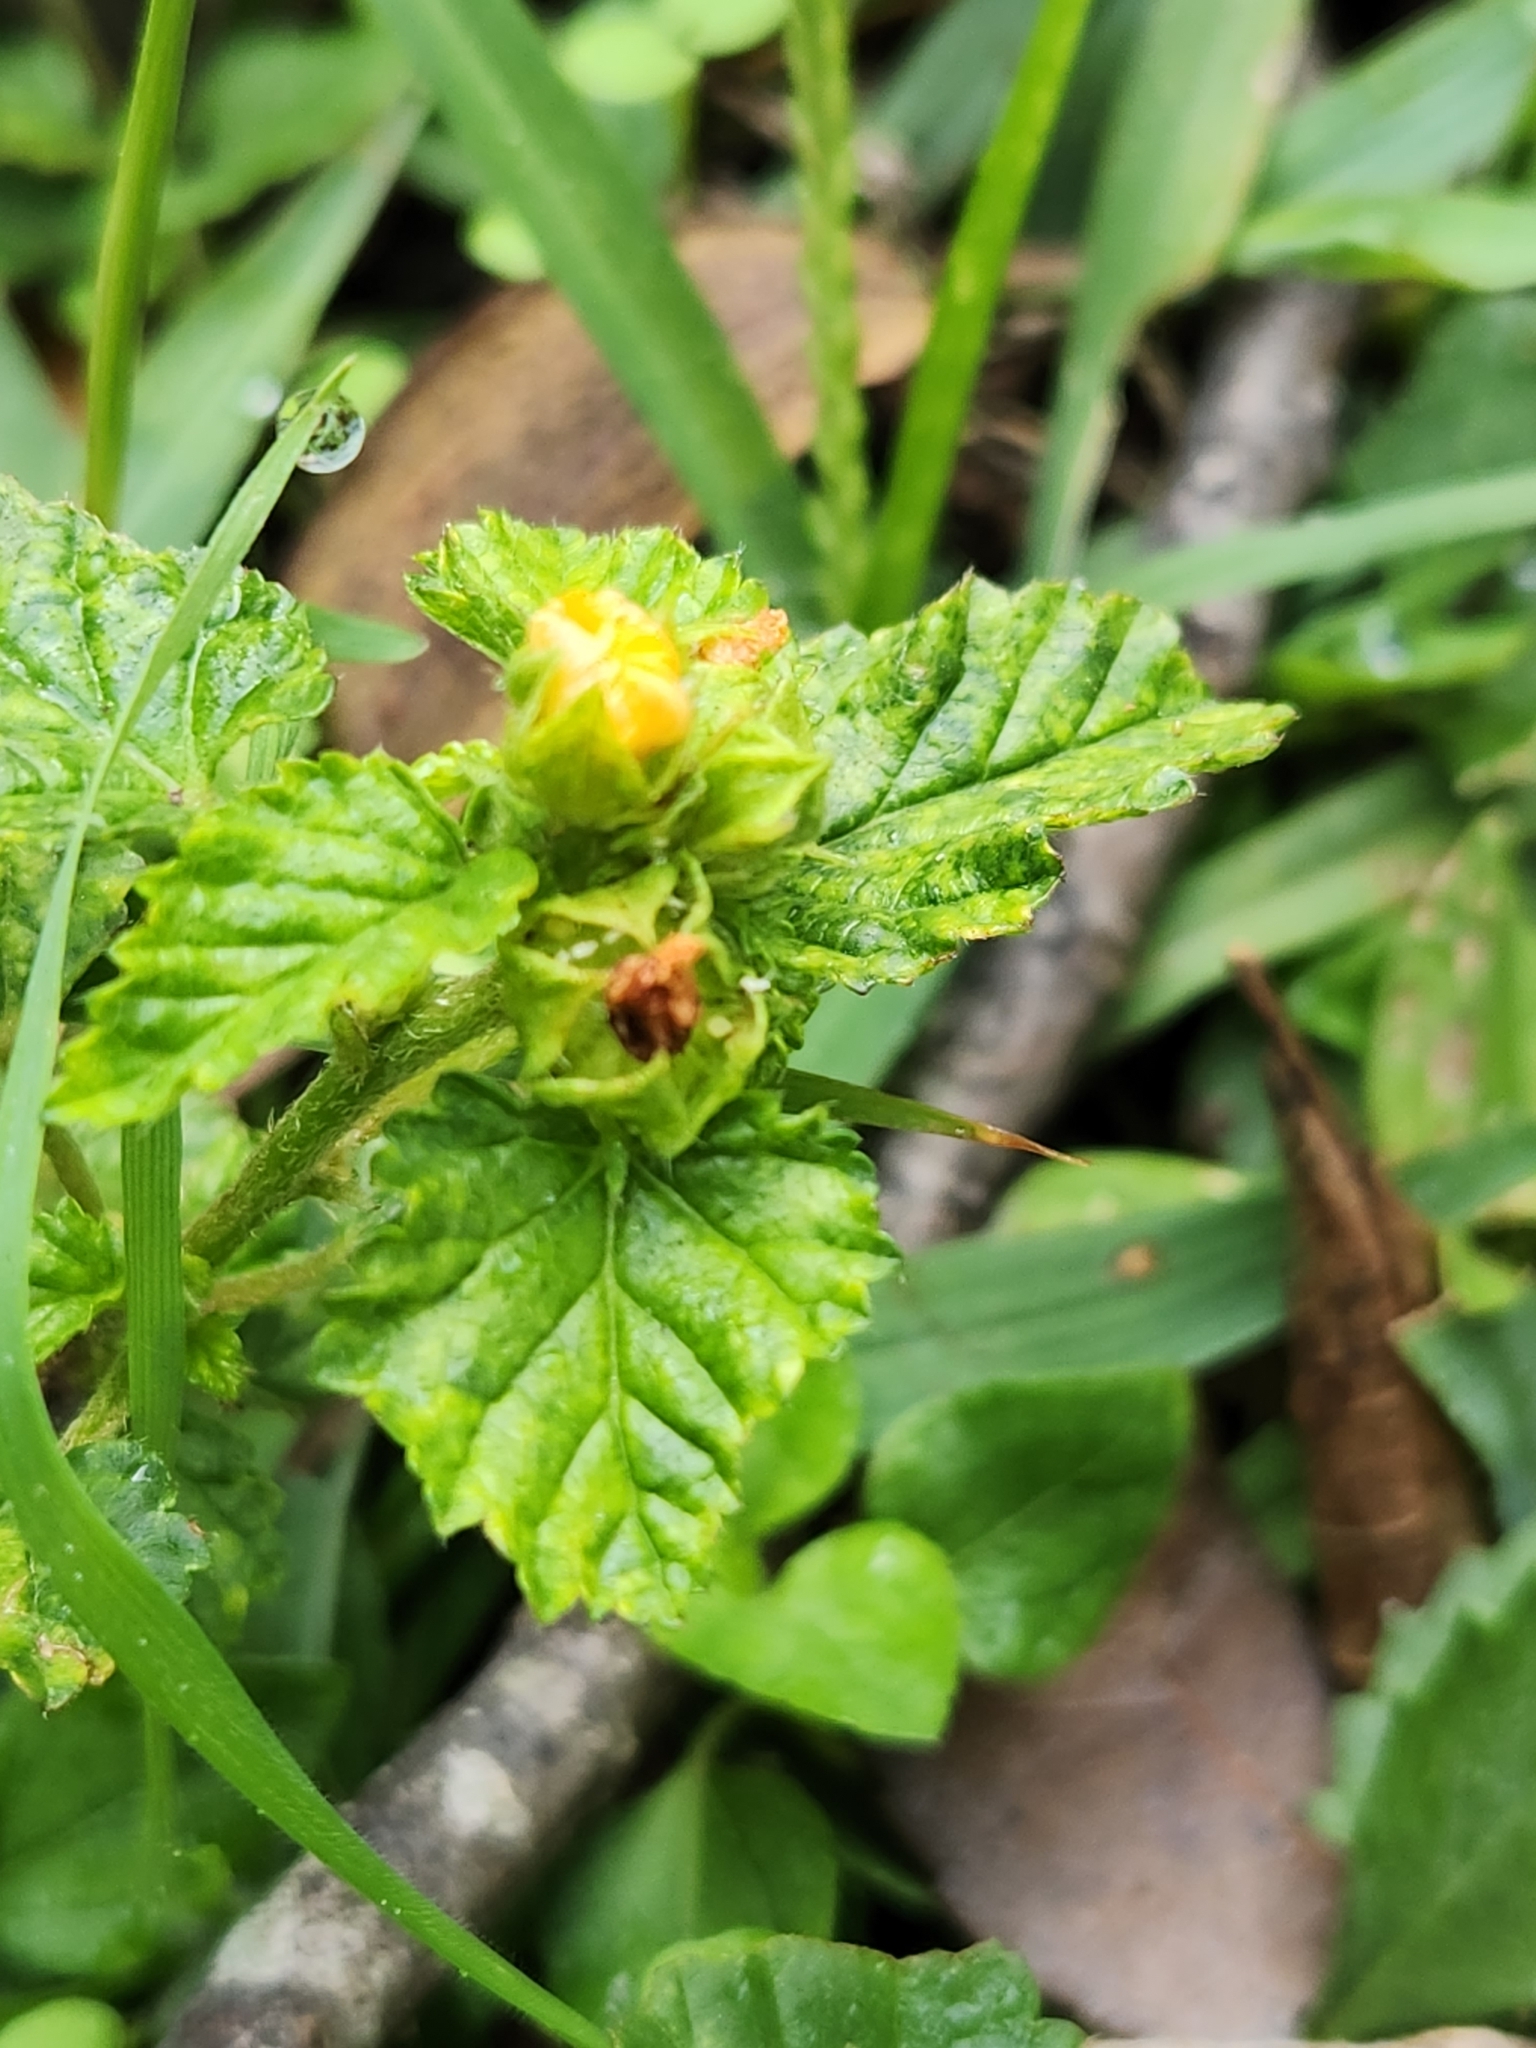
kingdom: Plantae
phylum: Tracheophyta
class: Magnoliopsida
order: Malvales
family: Malvaceae
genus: Malvastrum
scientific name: Malvastrum coromandelianum
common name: Threelobe false mallow
